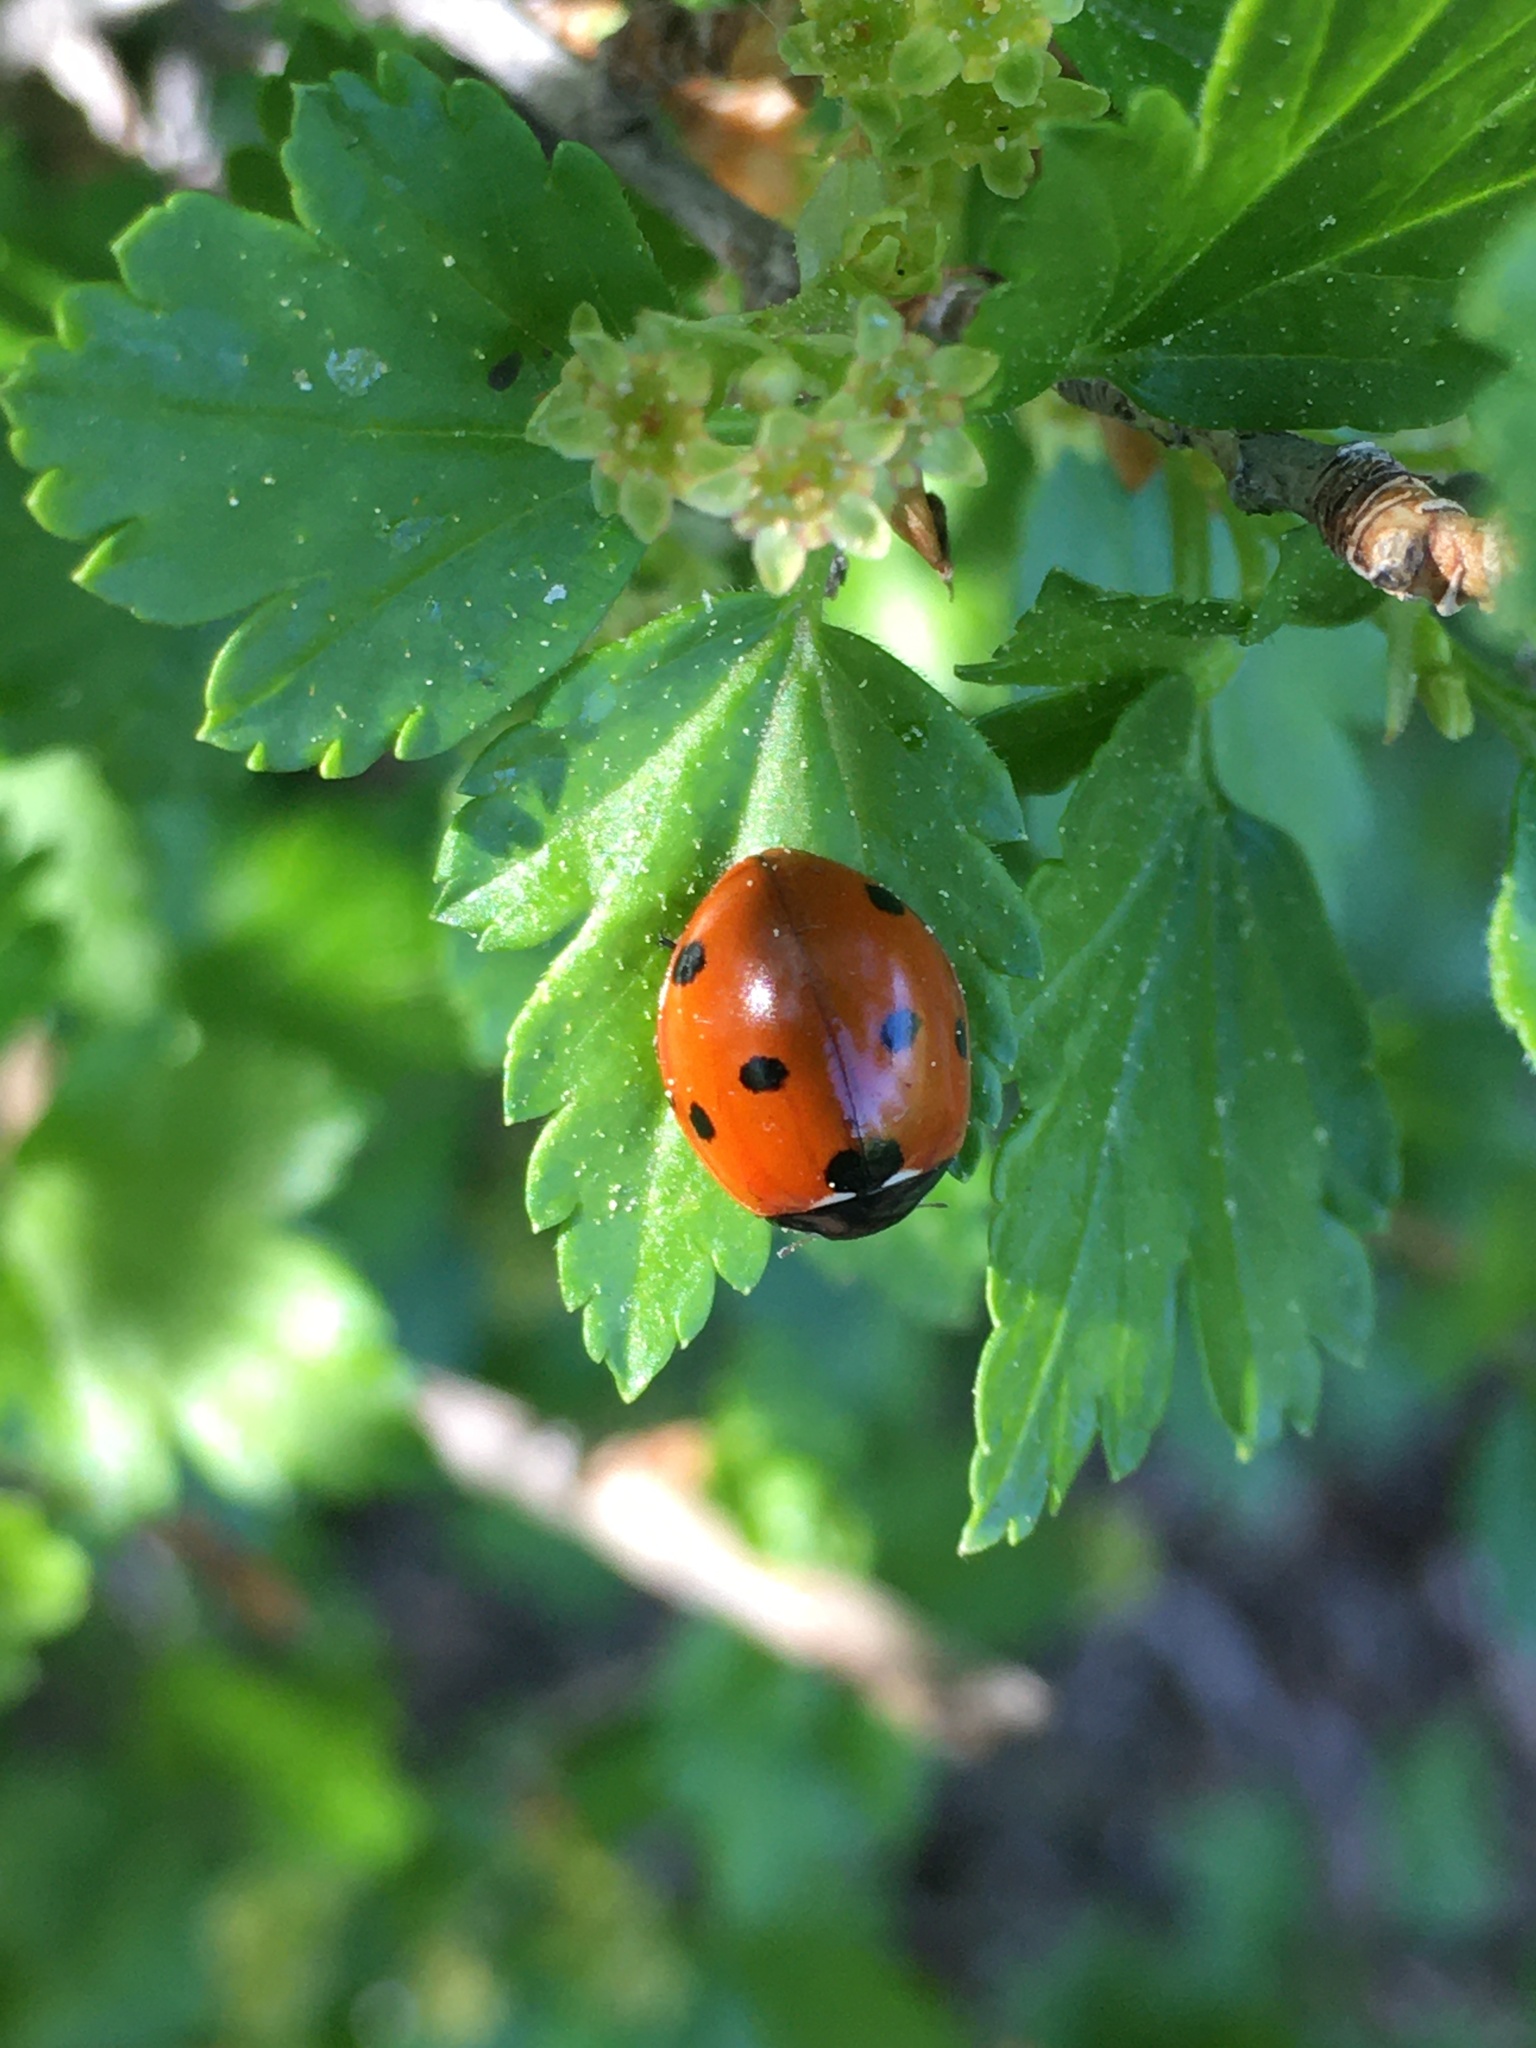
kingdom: Animalia
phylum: Arthropoda
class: Insecta
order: Coleoptera
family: Coccinellidae
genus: Coccinella
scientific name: Coccinella septempunctata
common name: Sevenspotted lady beetle
